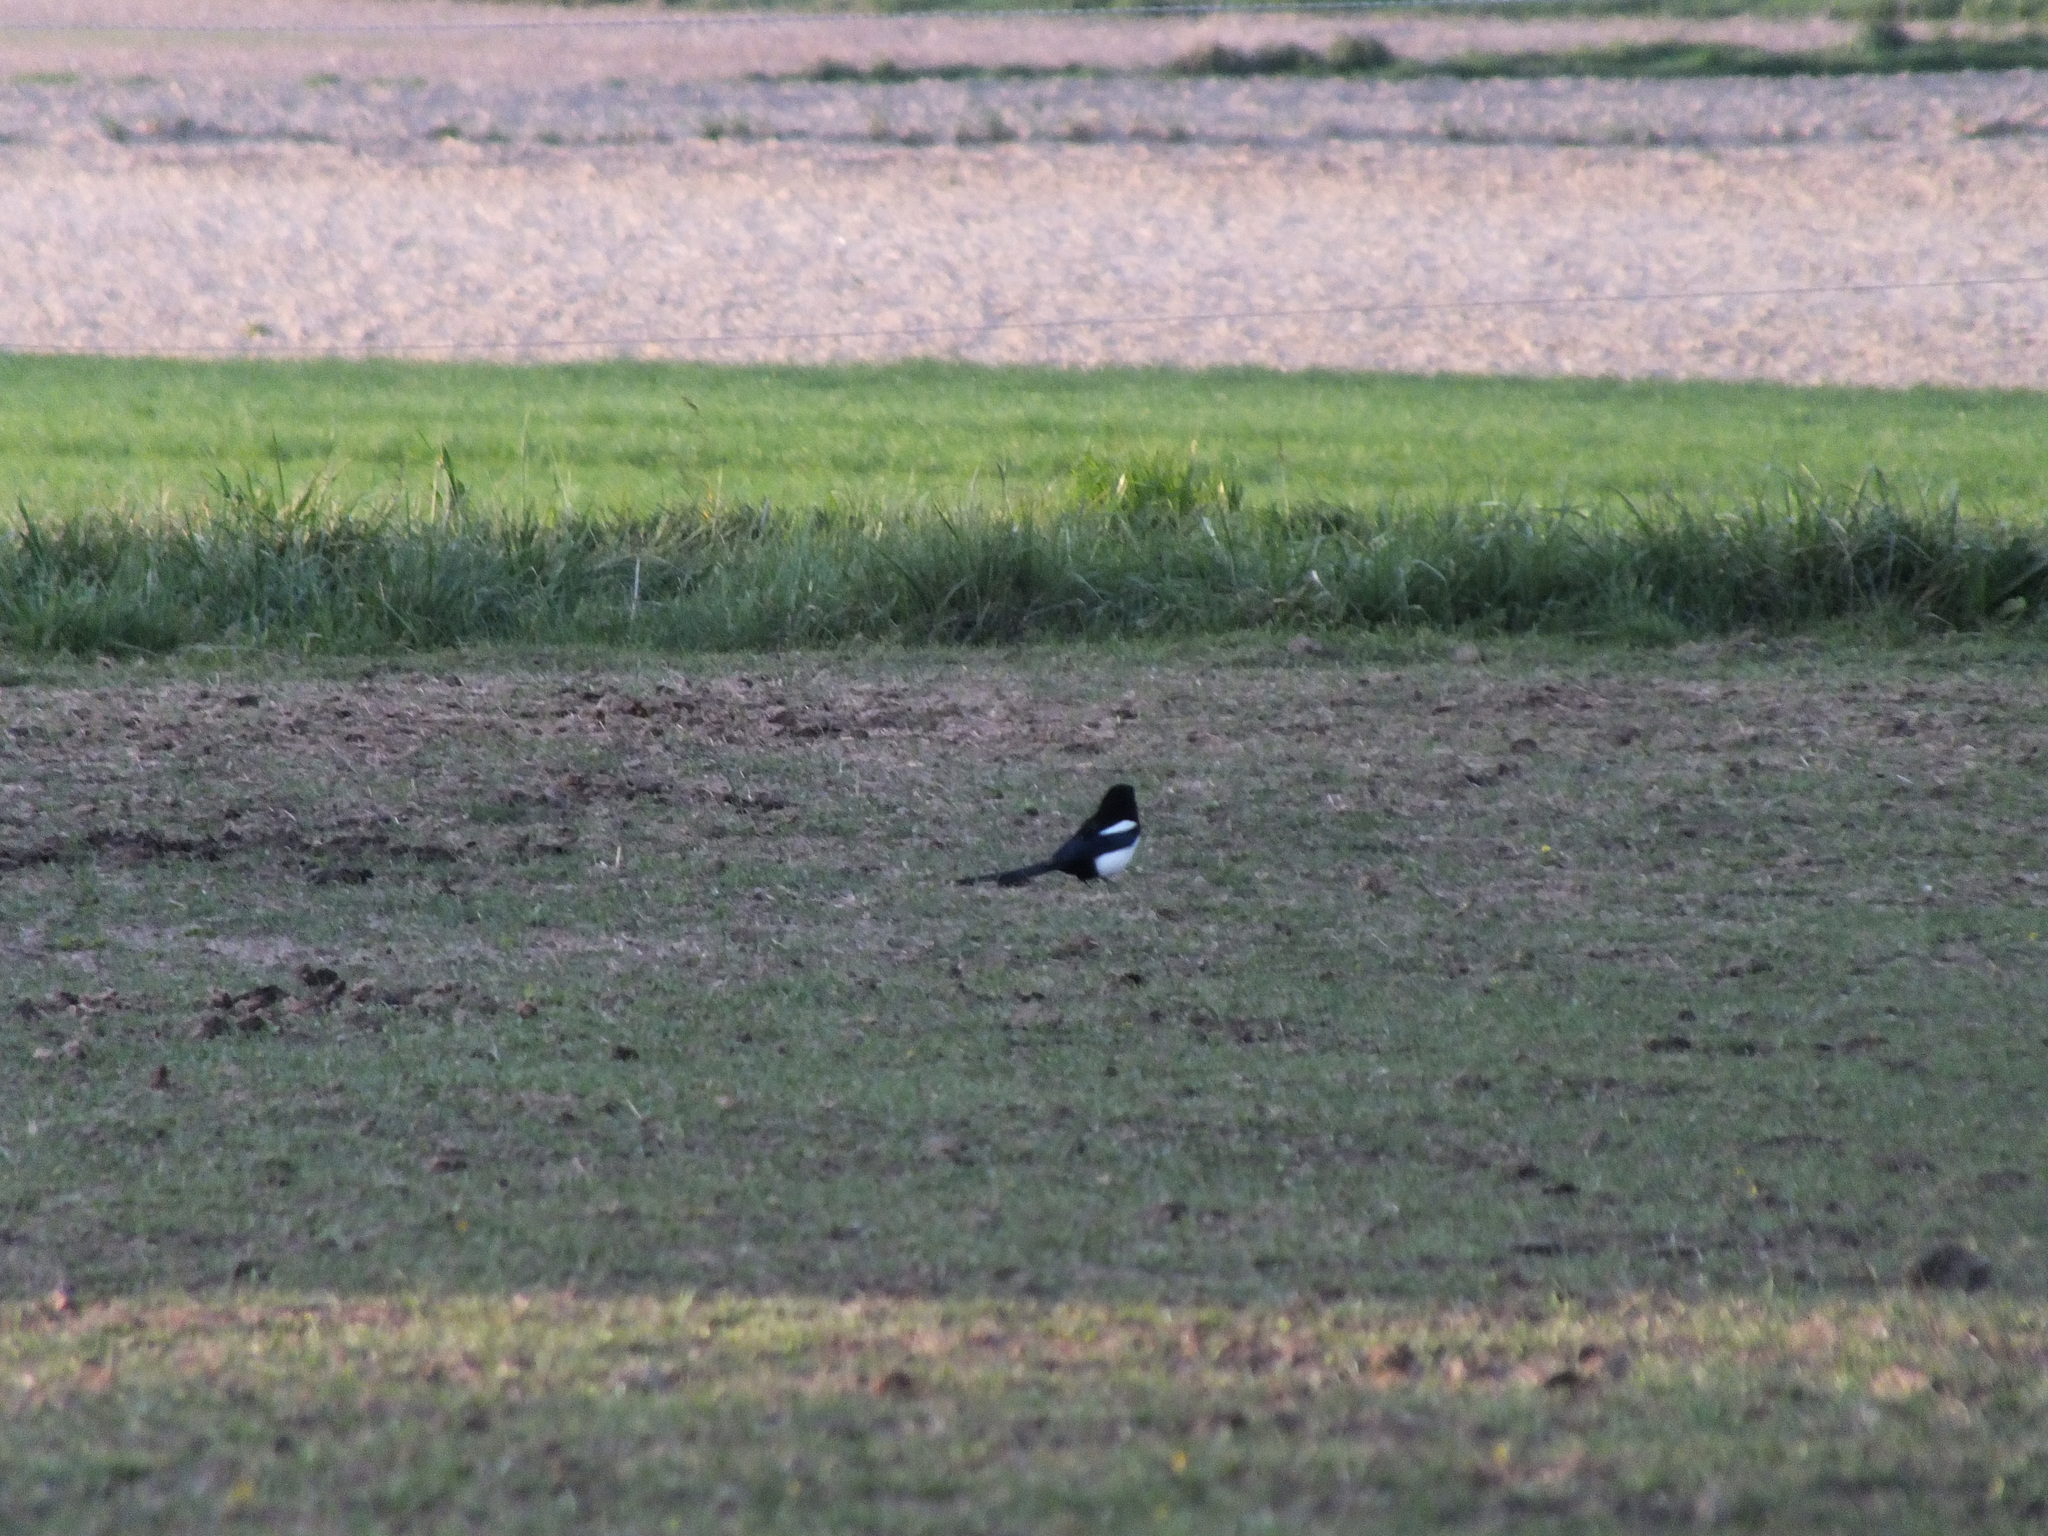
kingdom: Animalia
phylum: Chordata
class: Aves
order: Passeriformes
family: Corvidae
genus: Pica
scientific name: Pica pica
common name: Eurasian magpie
